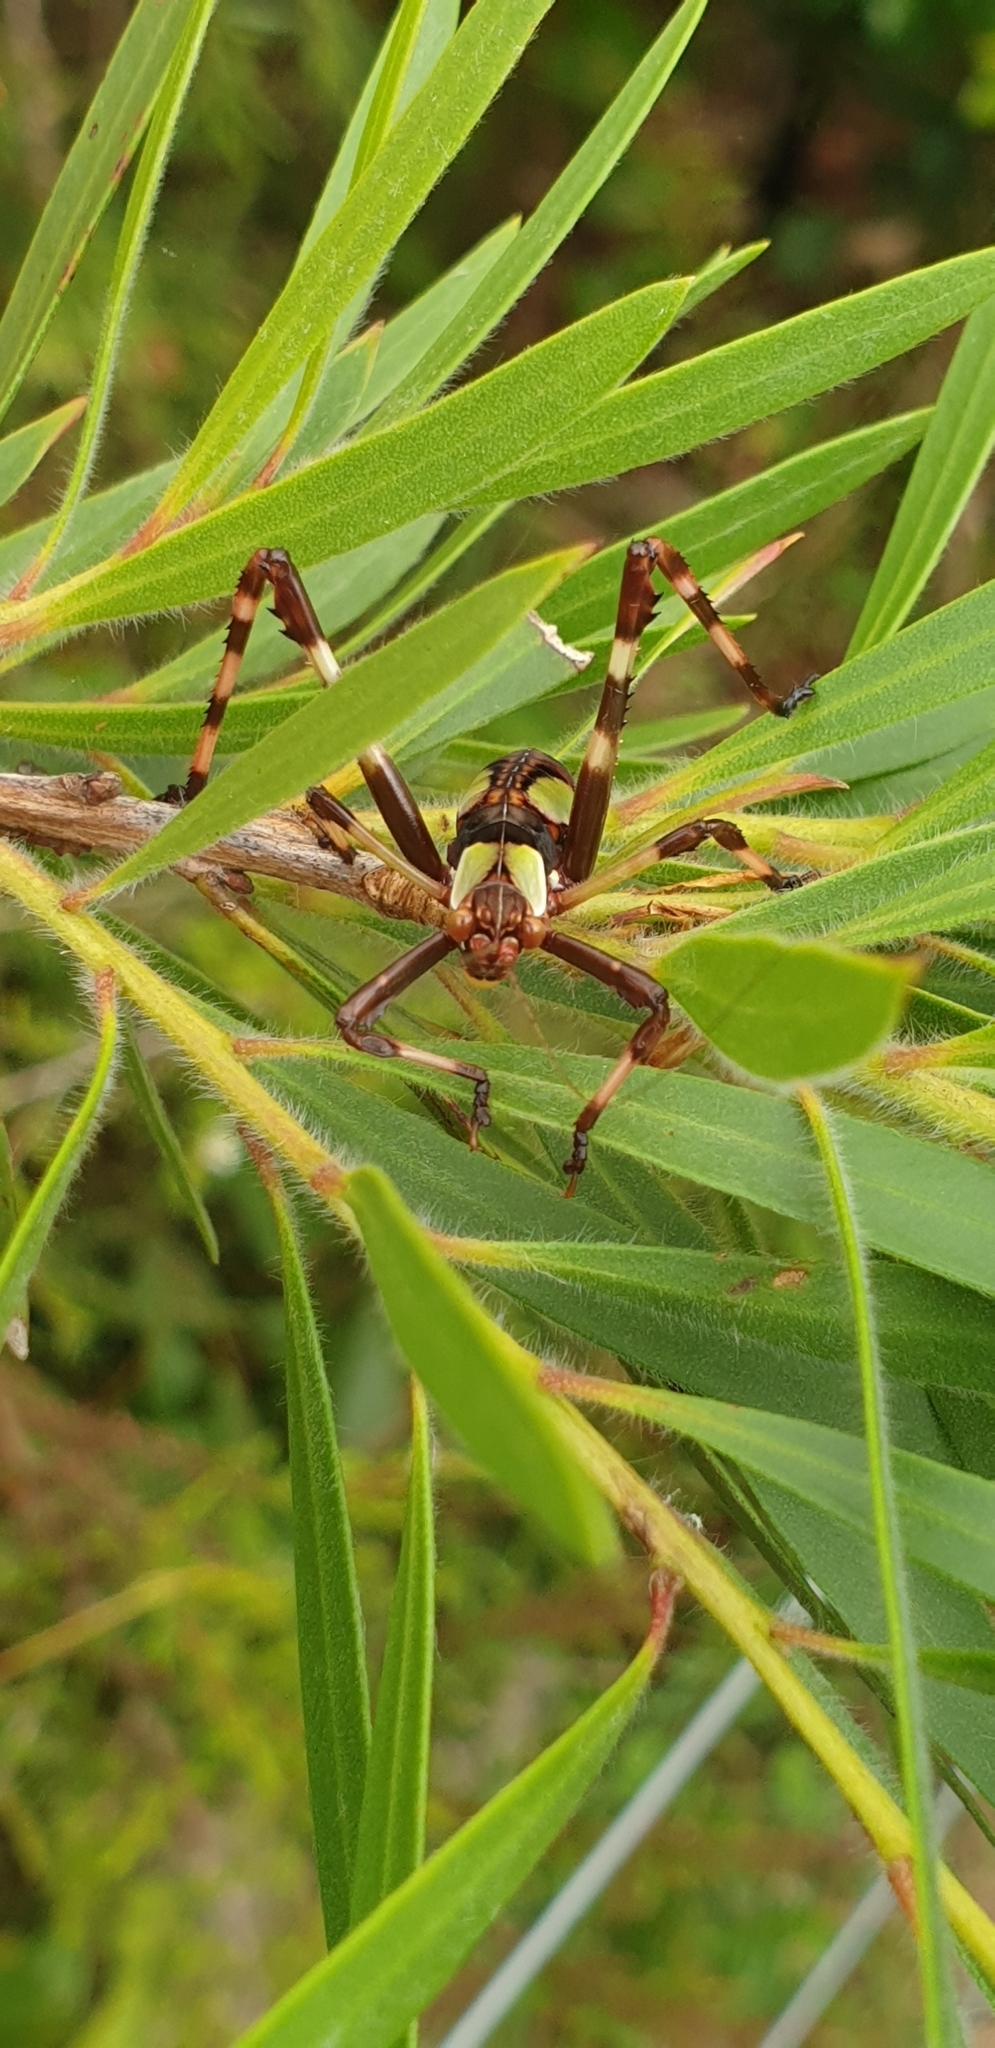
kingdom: Animalia
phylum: Arthropoda
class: Insecta
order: Orthoptera
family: Tettigoniidae
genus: Ephippitytha
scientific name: Ephippitytha trigintiduoguttata
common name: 32-spotted katydid
